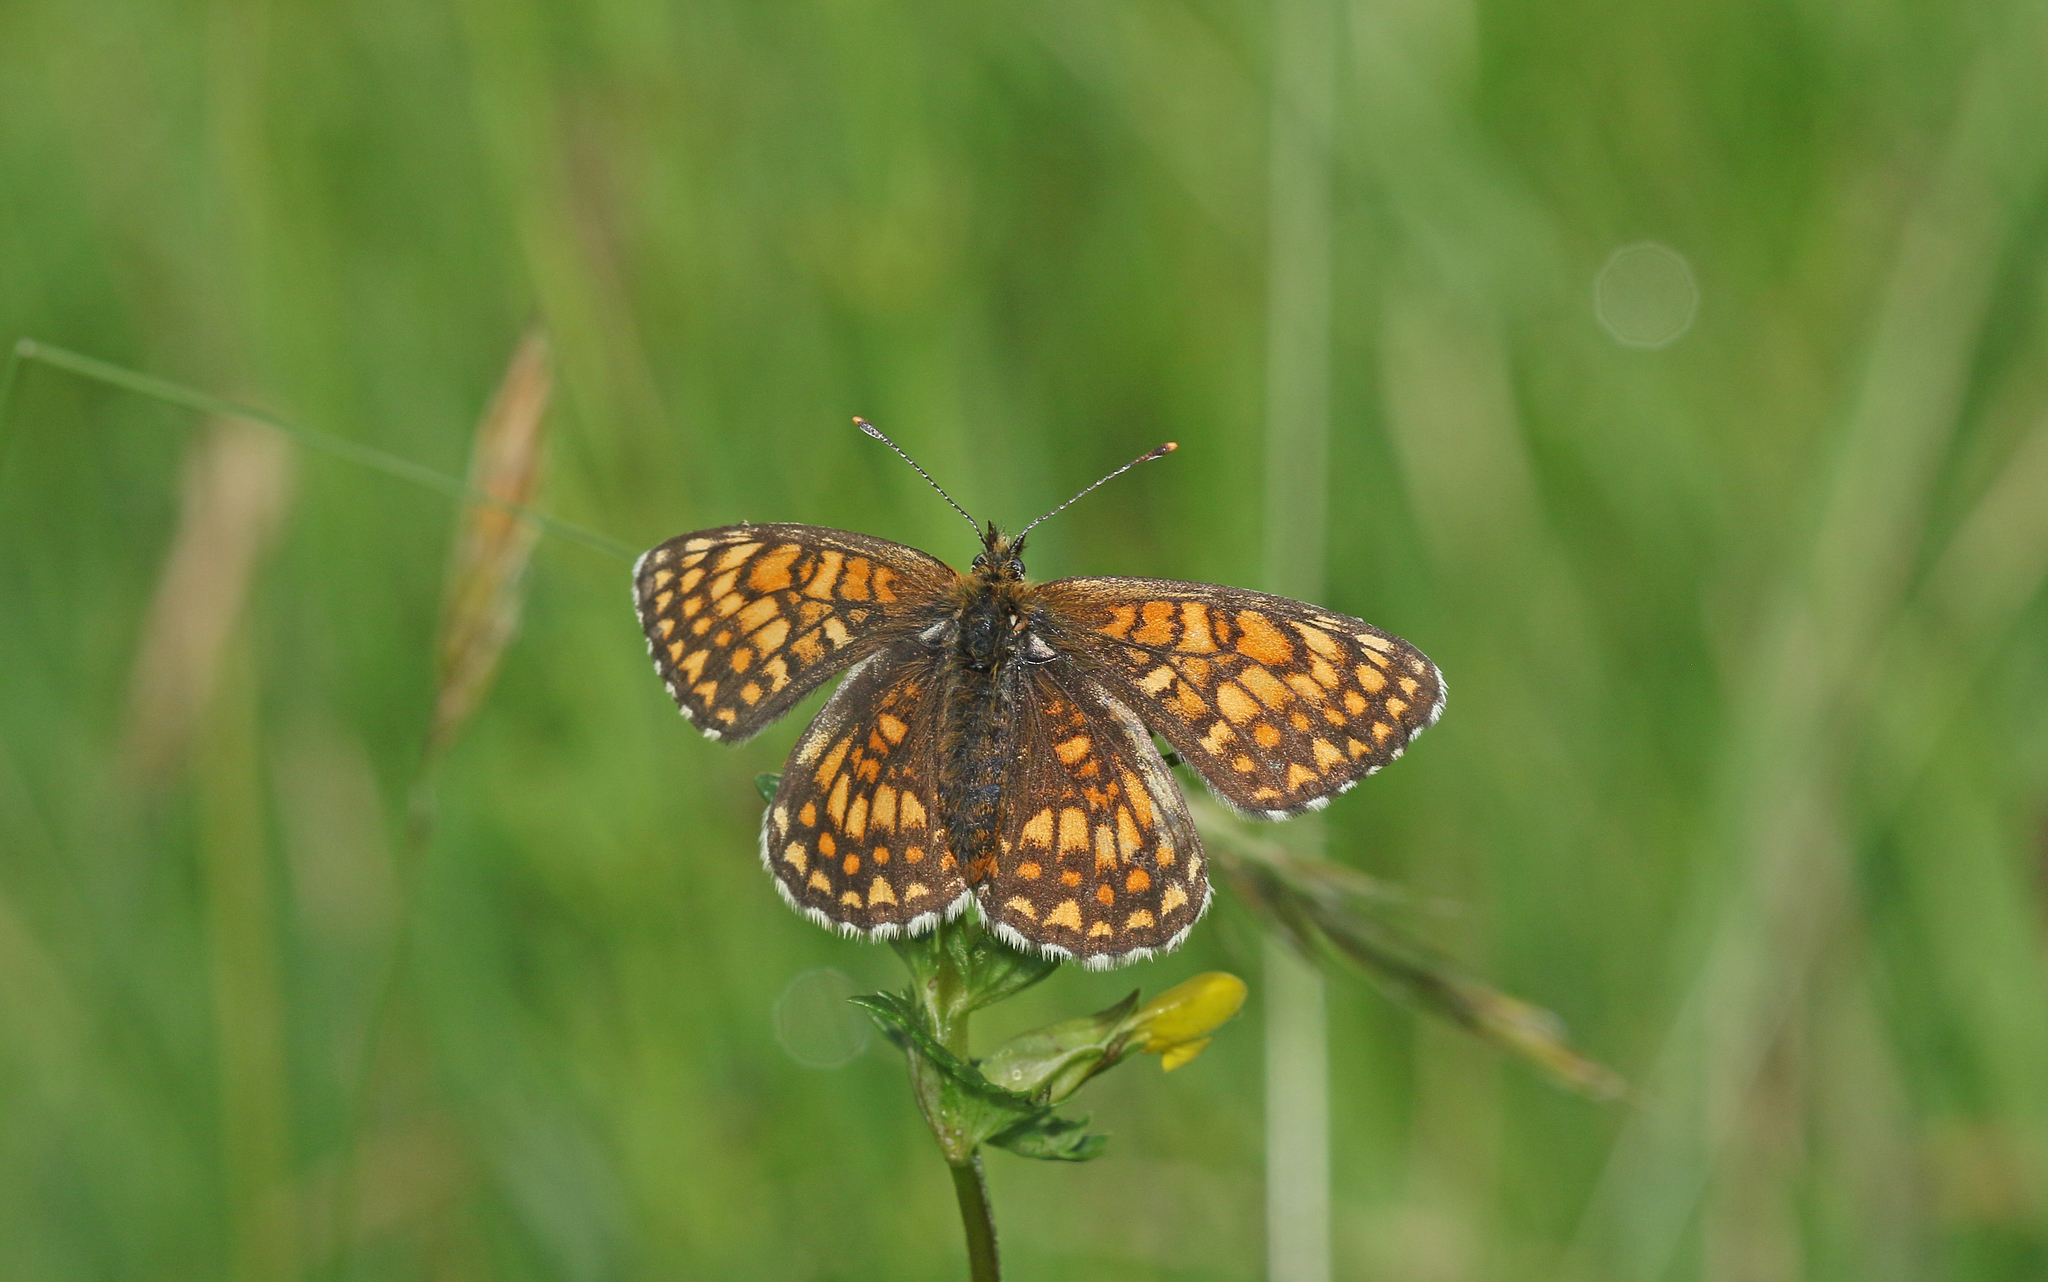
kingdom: Animalia
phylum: Arthropoda
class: Insecta
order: Lepidoptera
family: Nymphalidae
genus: Melitaea
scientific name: Melitaea athalia
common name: Heath fritillary
